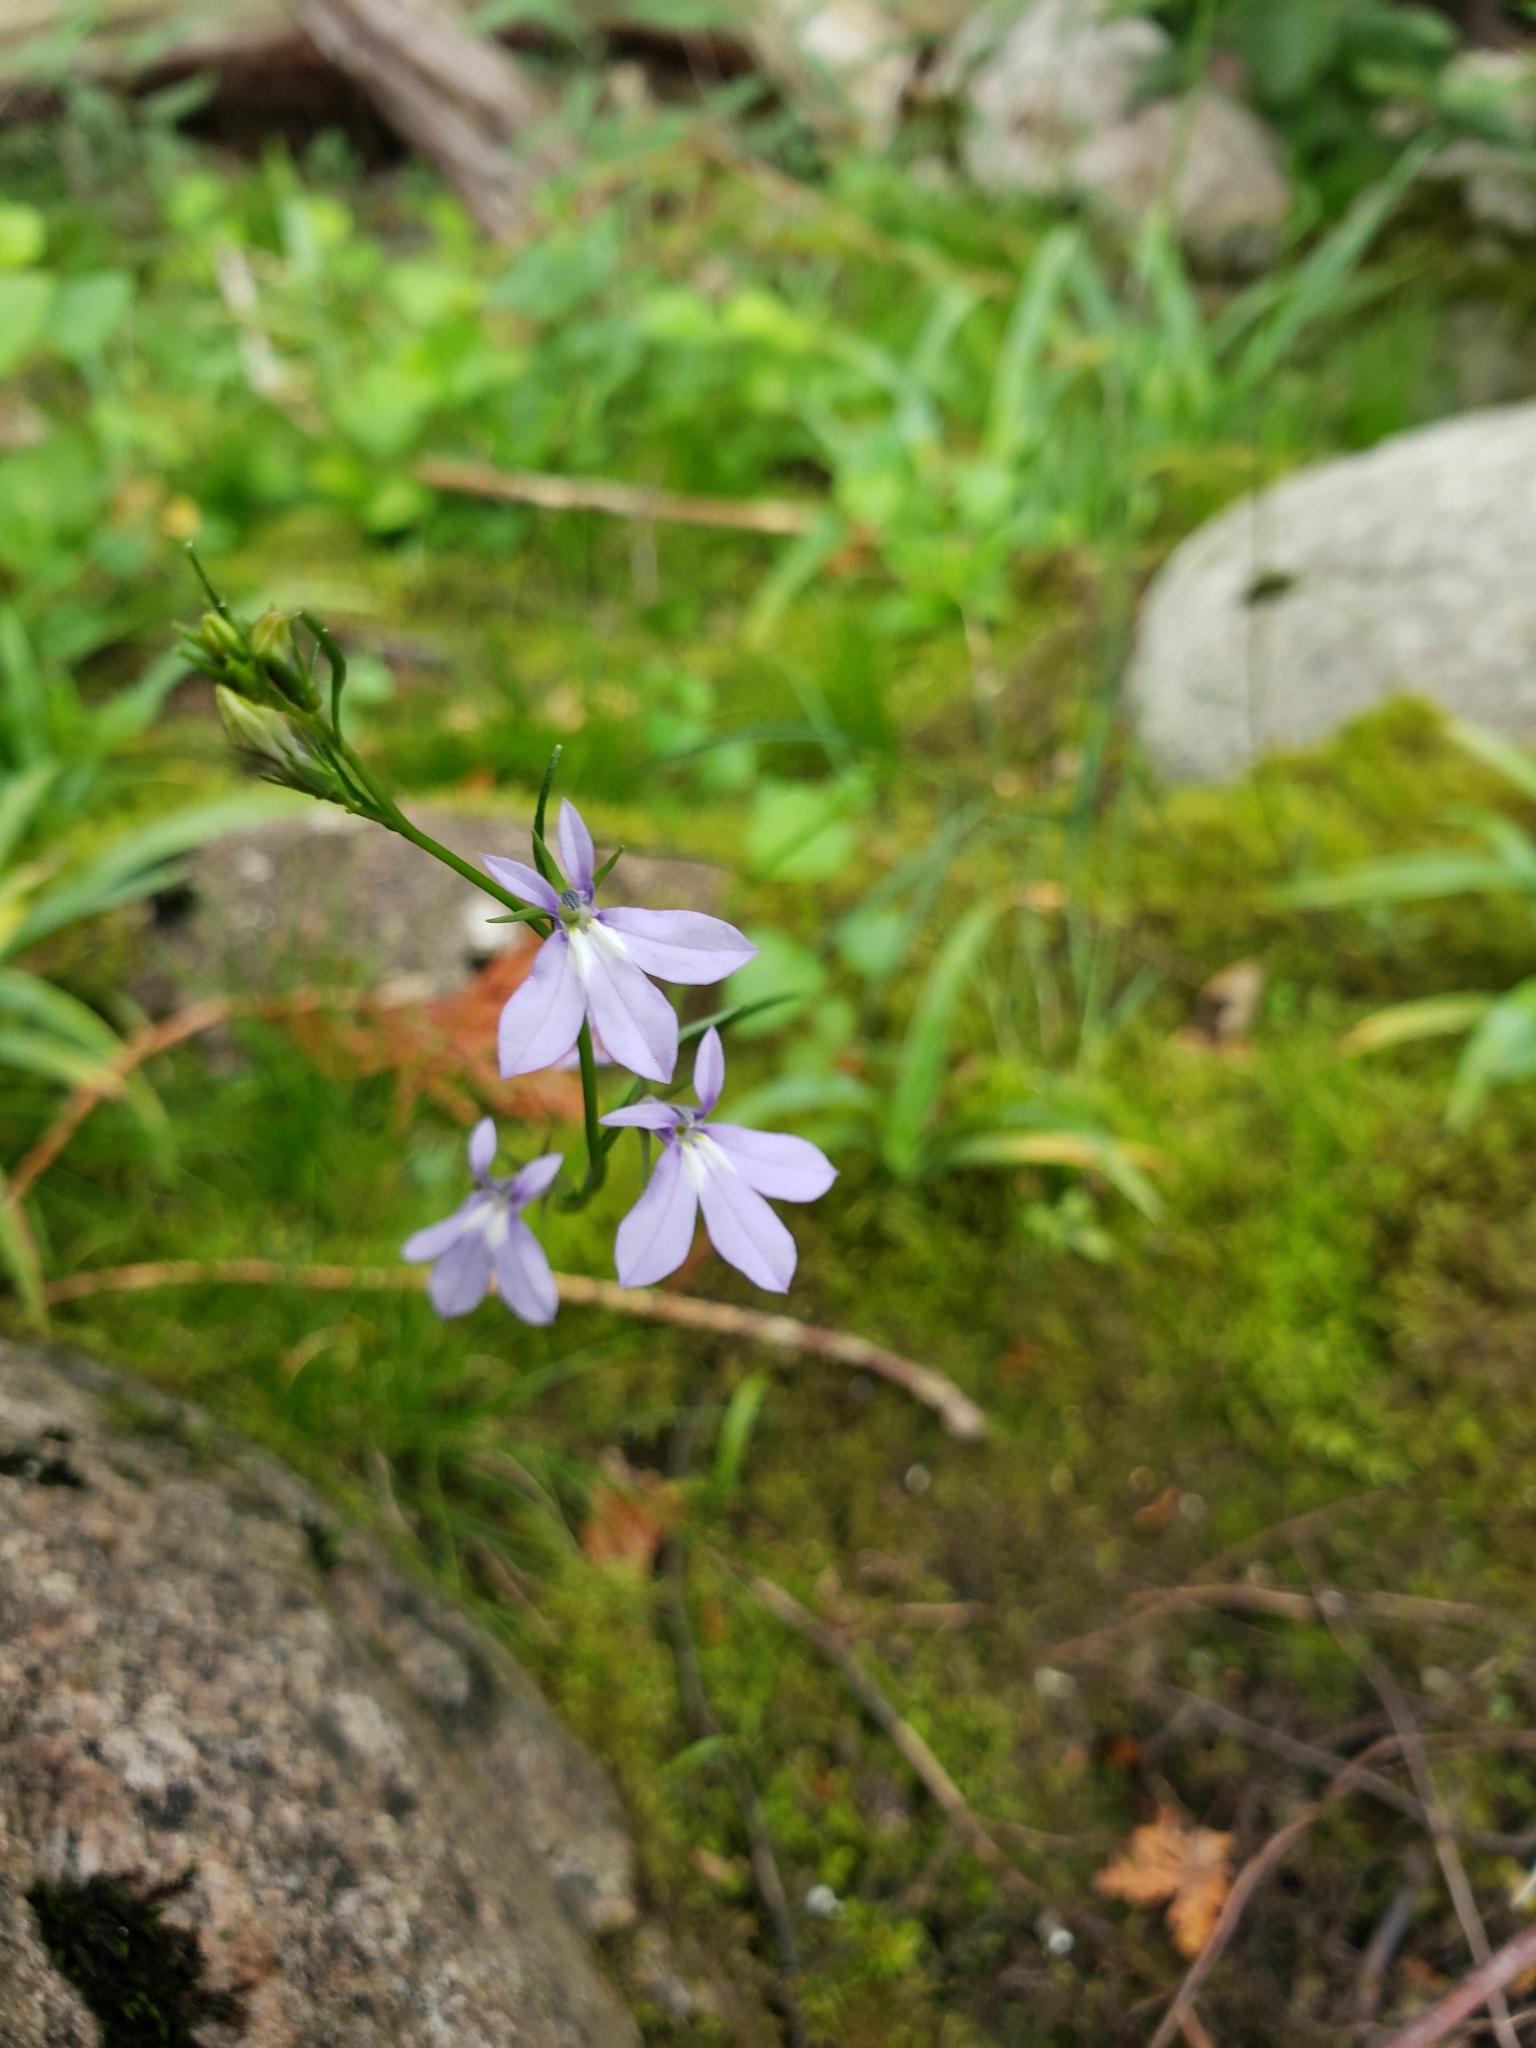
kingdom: Plantae
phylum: Tracheophyta
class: Magnoliopsida
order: Asterales
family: Campanulaceae
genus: Lobelia
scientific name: Lobelia kalmii
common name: Kalm's lobelia
